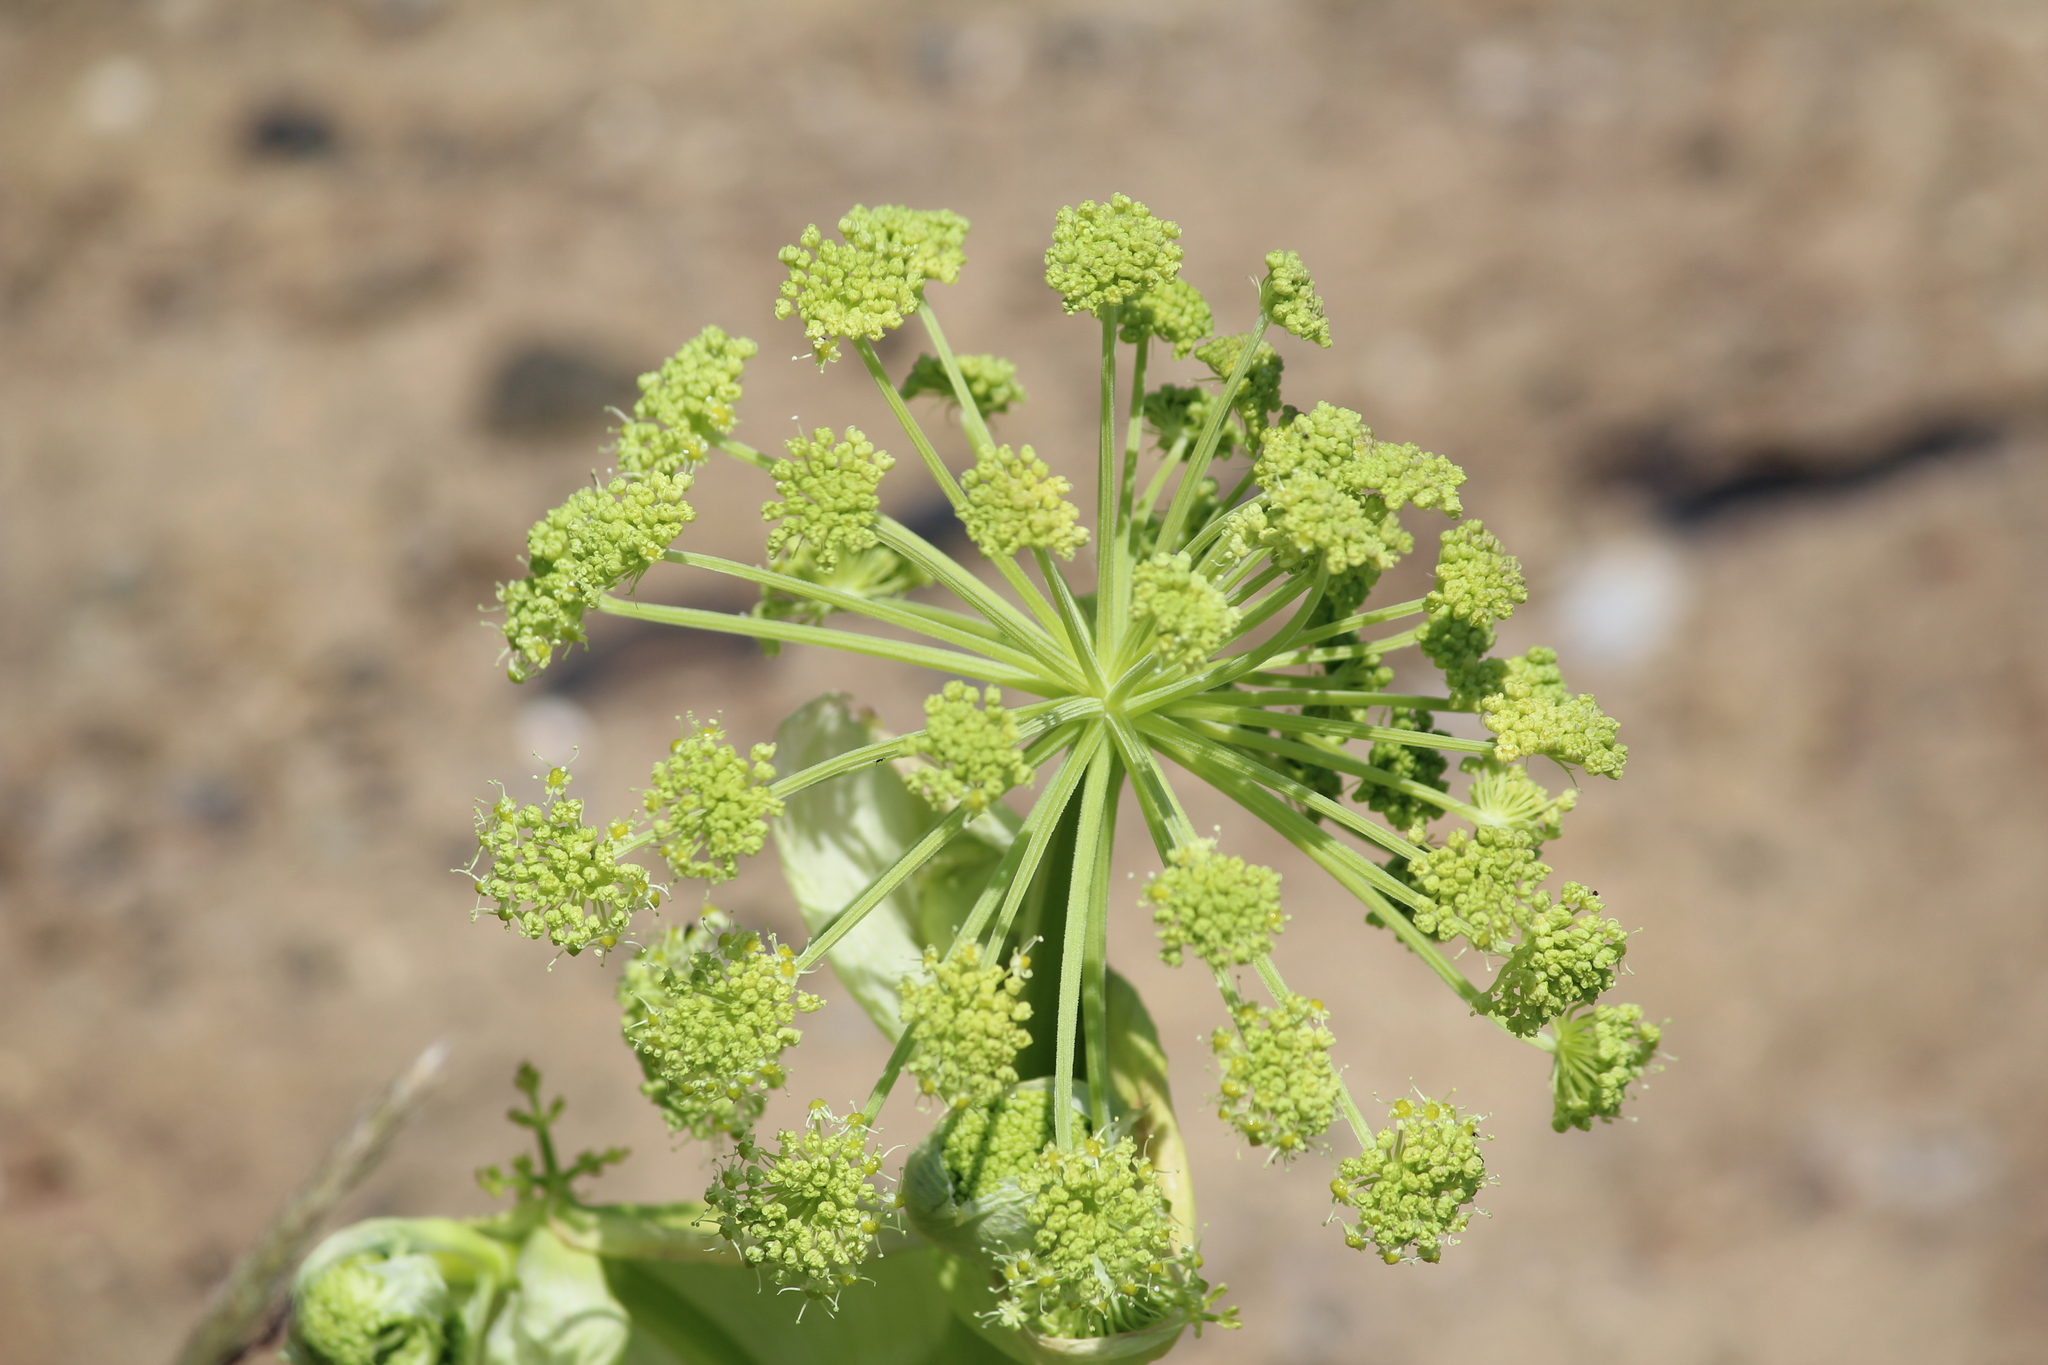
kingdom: Plantae
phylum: Tracheophyta
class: Magnoliopsida
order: Apiales
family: Apiaceae
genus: Angelica
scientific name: Angelica decurrens
